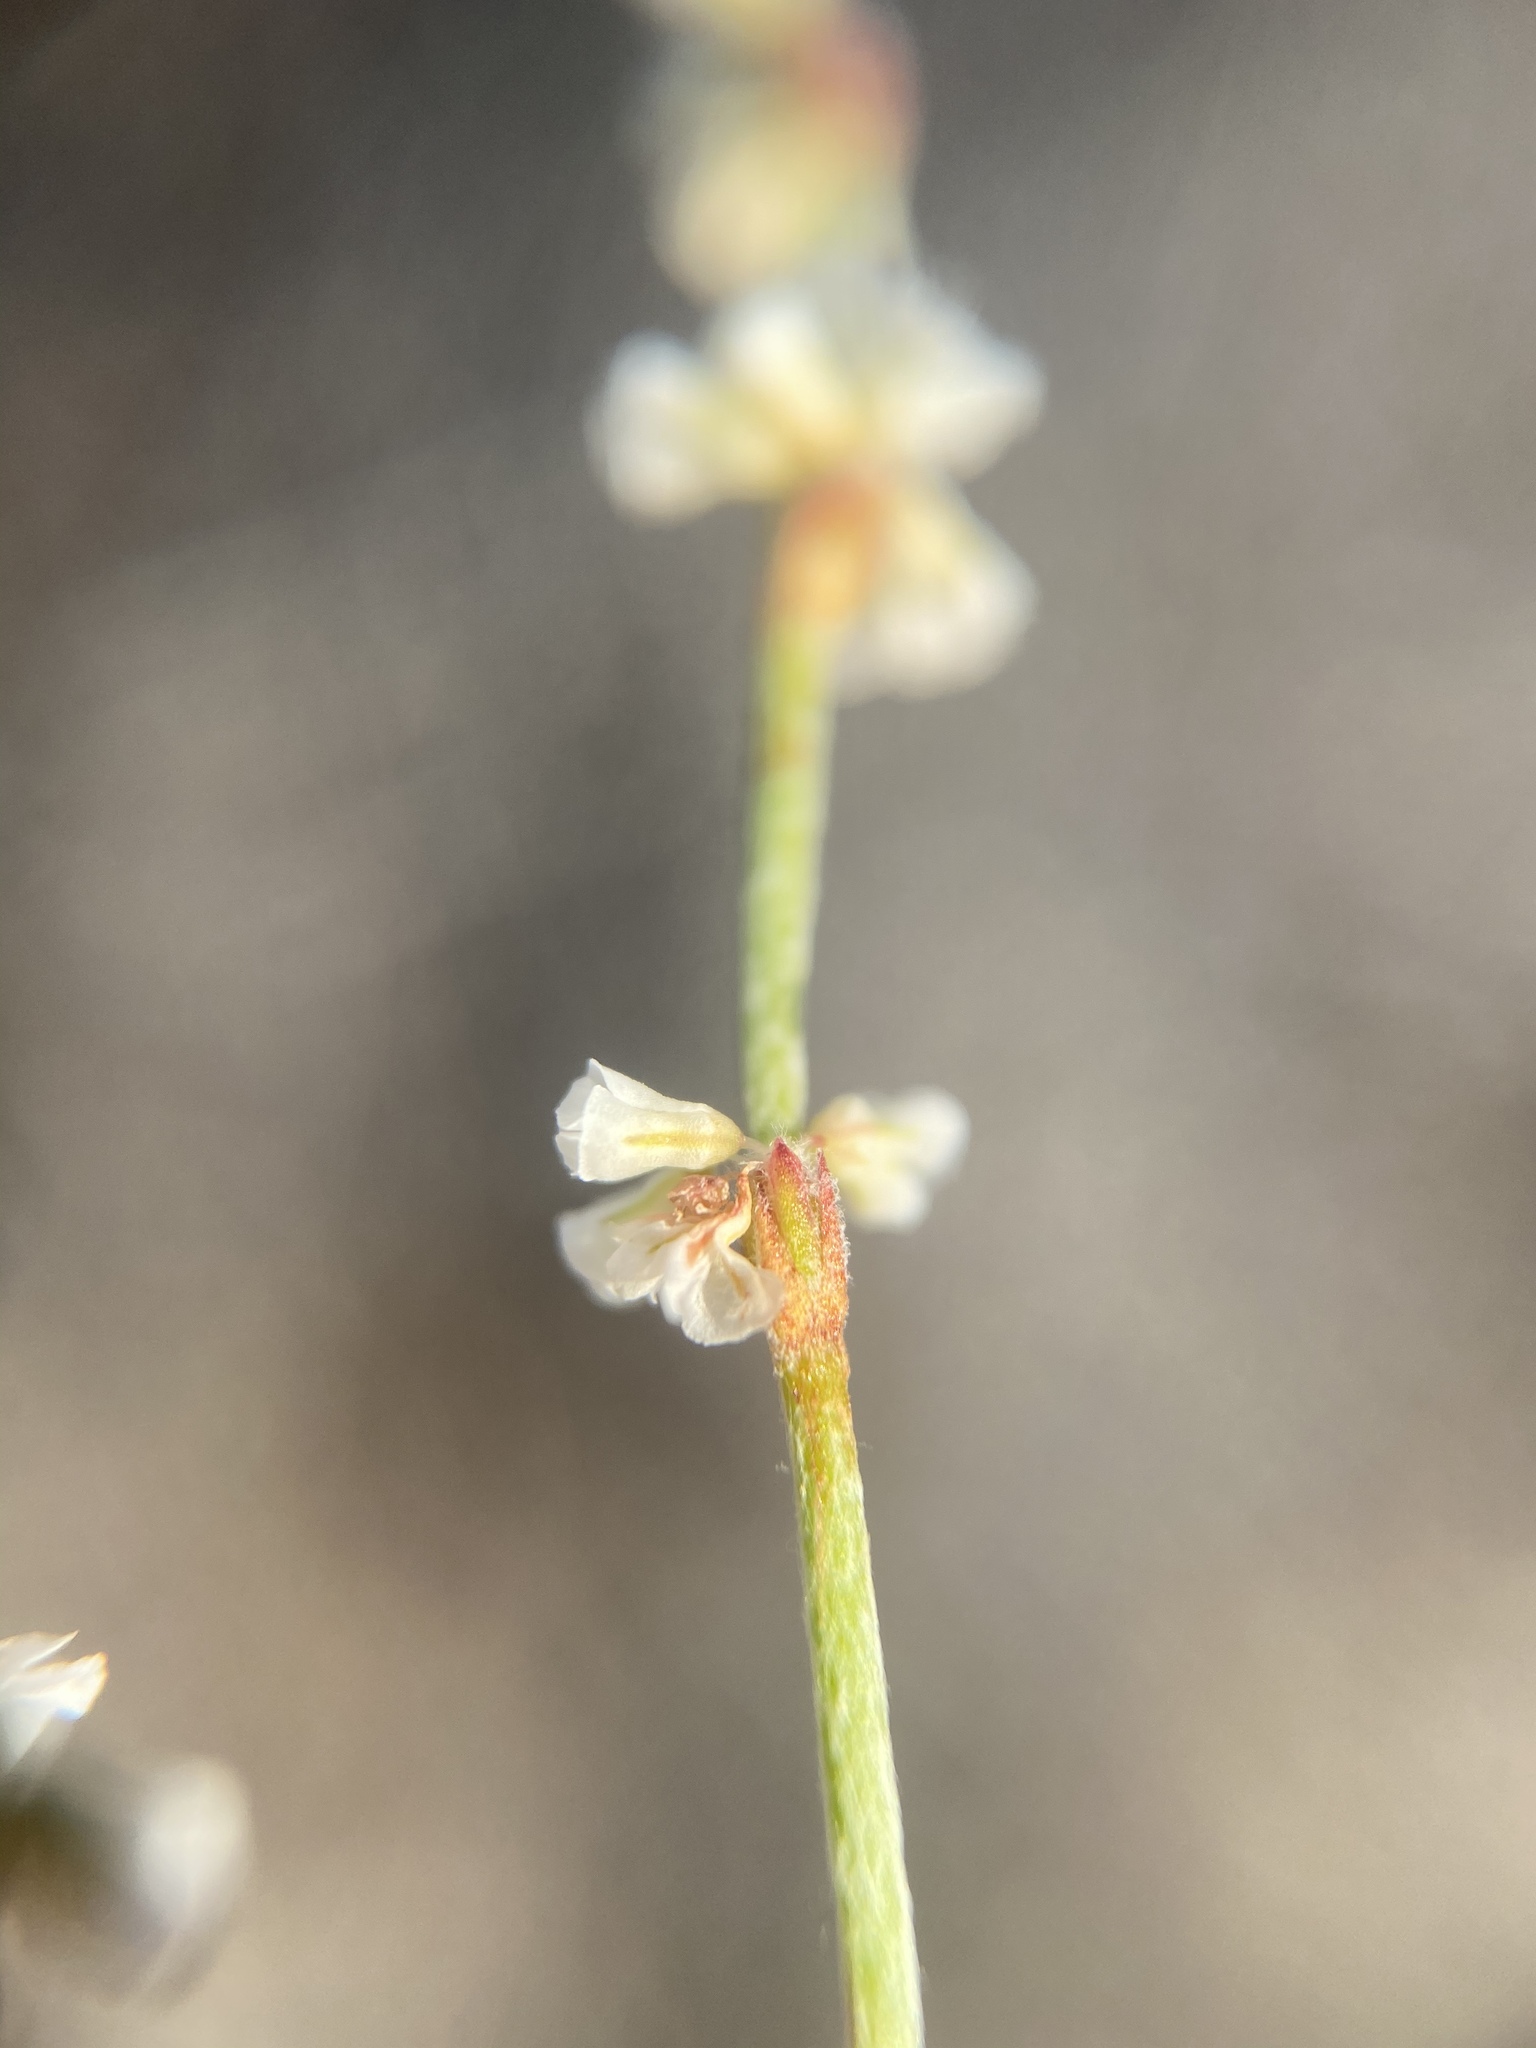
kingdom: Plantae
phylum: Tracheophyta
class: Magnoliopsida
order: Caryophyllales
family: Polygonaceae
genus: Eriogonum
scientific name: Eriogonum palmerianum
